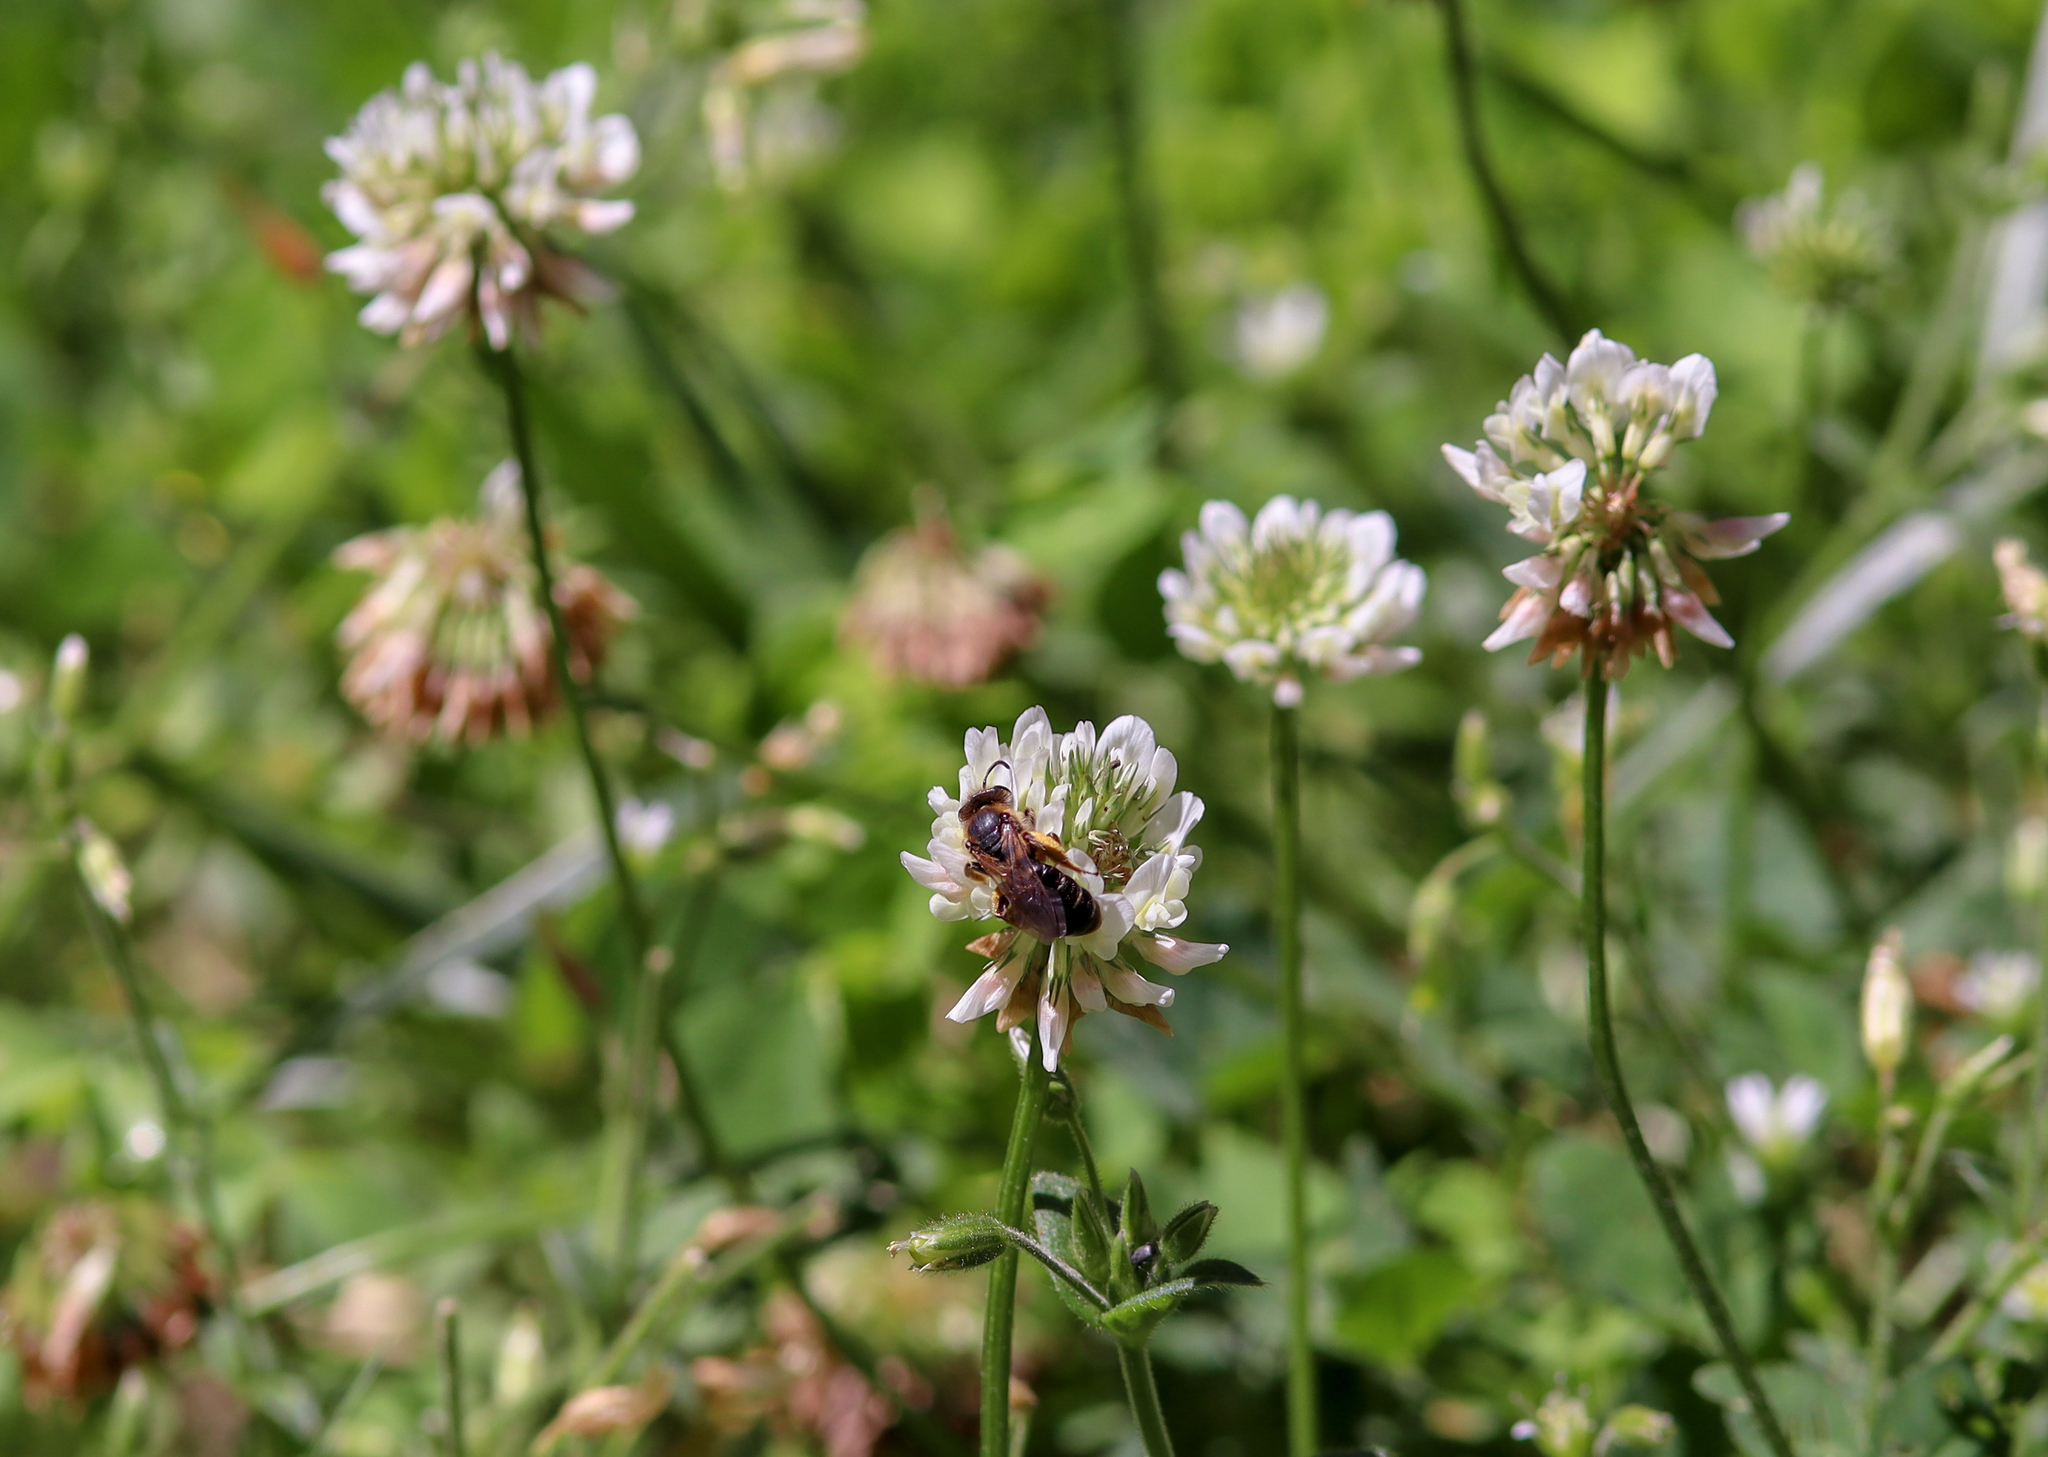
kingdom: Animalia
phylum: Arthropoda
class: Insecta
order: Hymenoptera
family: Andrenidae
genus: Andrena
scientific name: Andrena wilkella
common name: Wilke's mining bee
